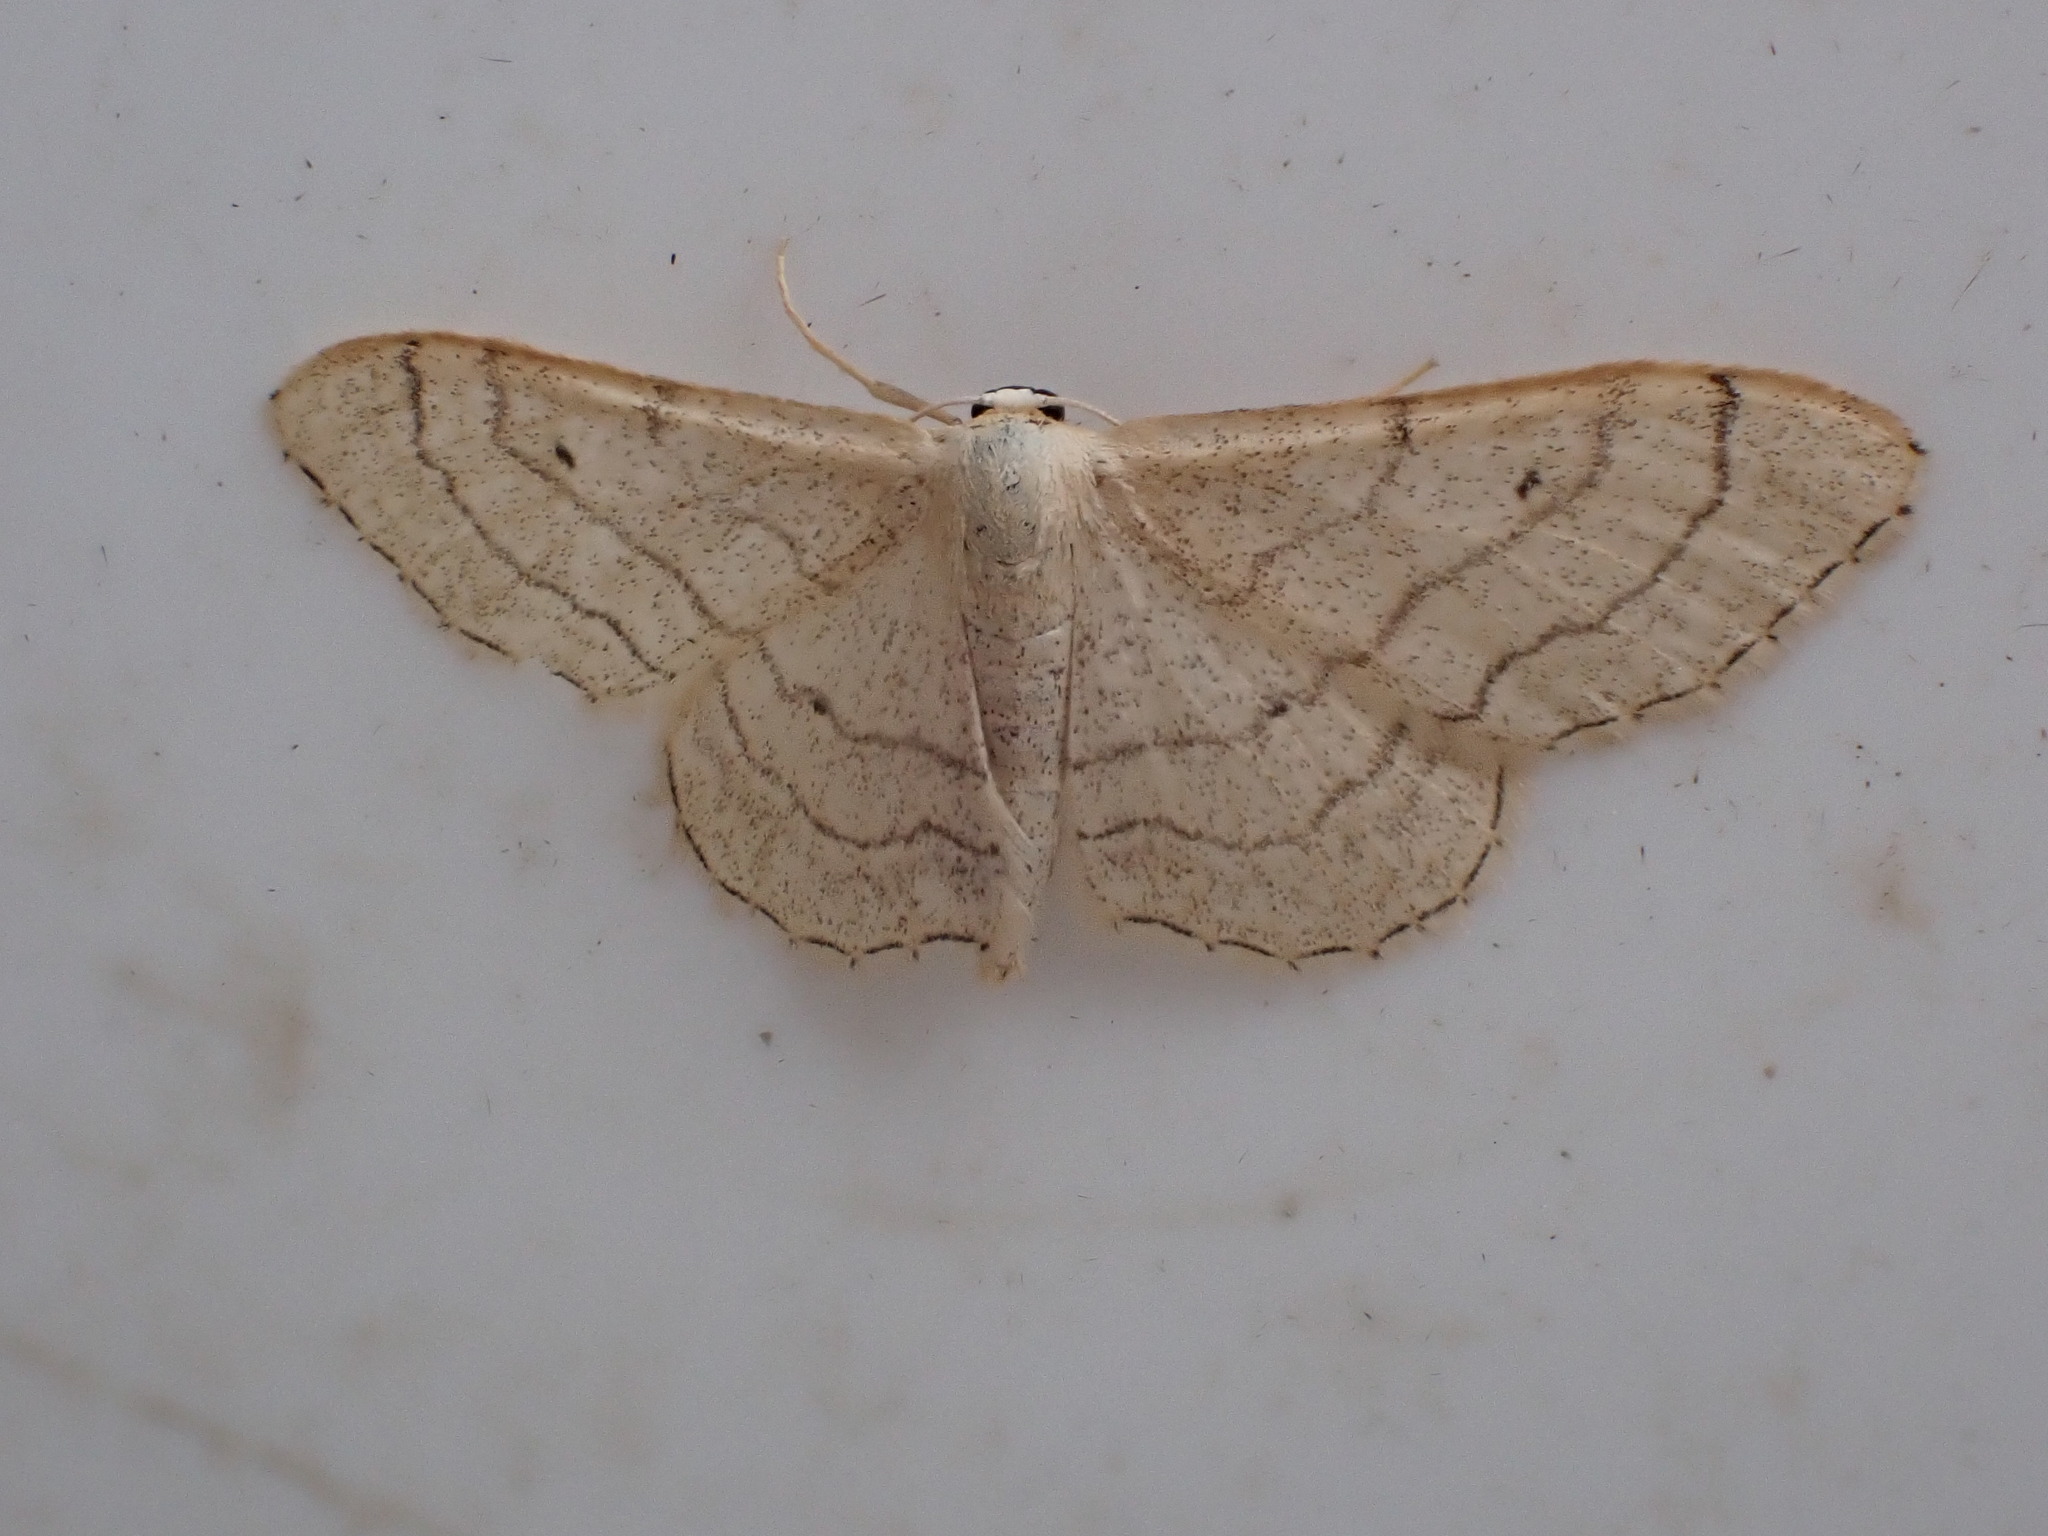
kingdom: Animalia
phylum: Arthropoda
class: Insecta
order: Lepidoptera
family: Geometridae
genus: Idaea
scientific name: Idaea aversata
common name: Riband wave
